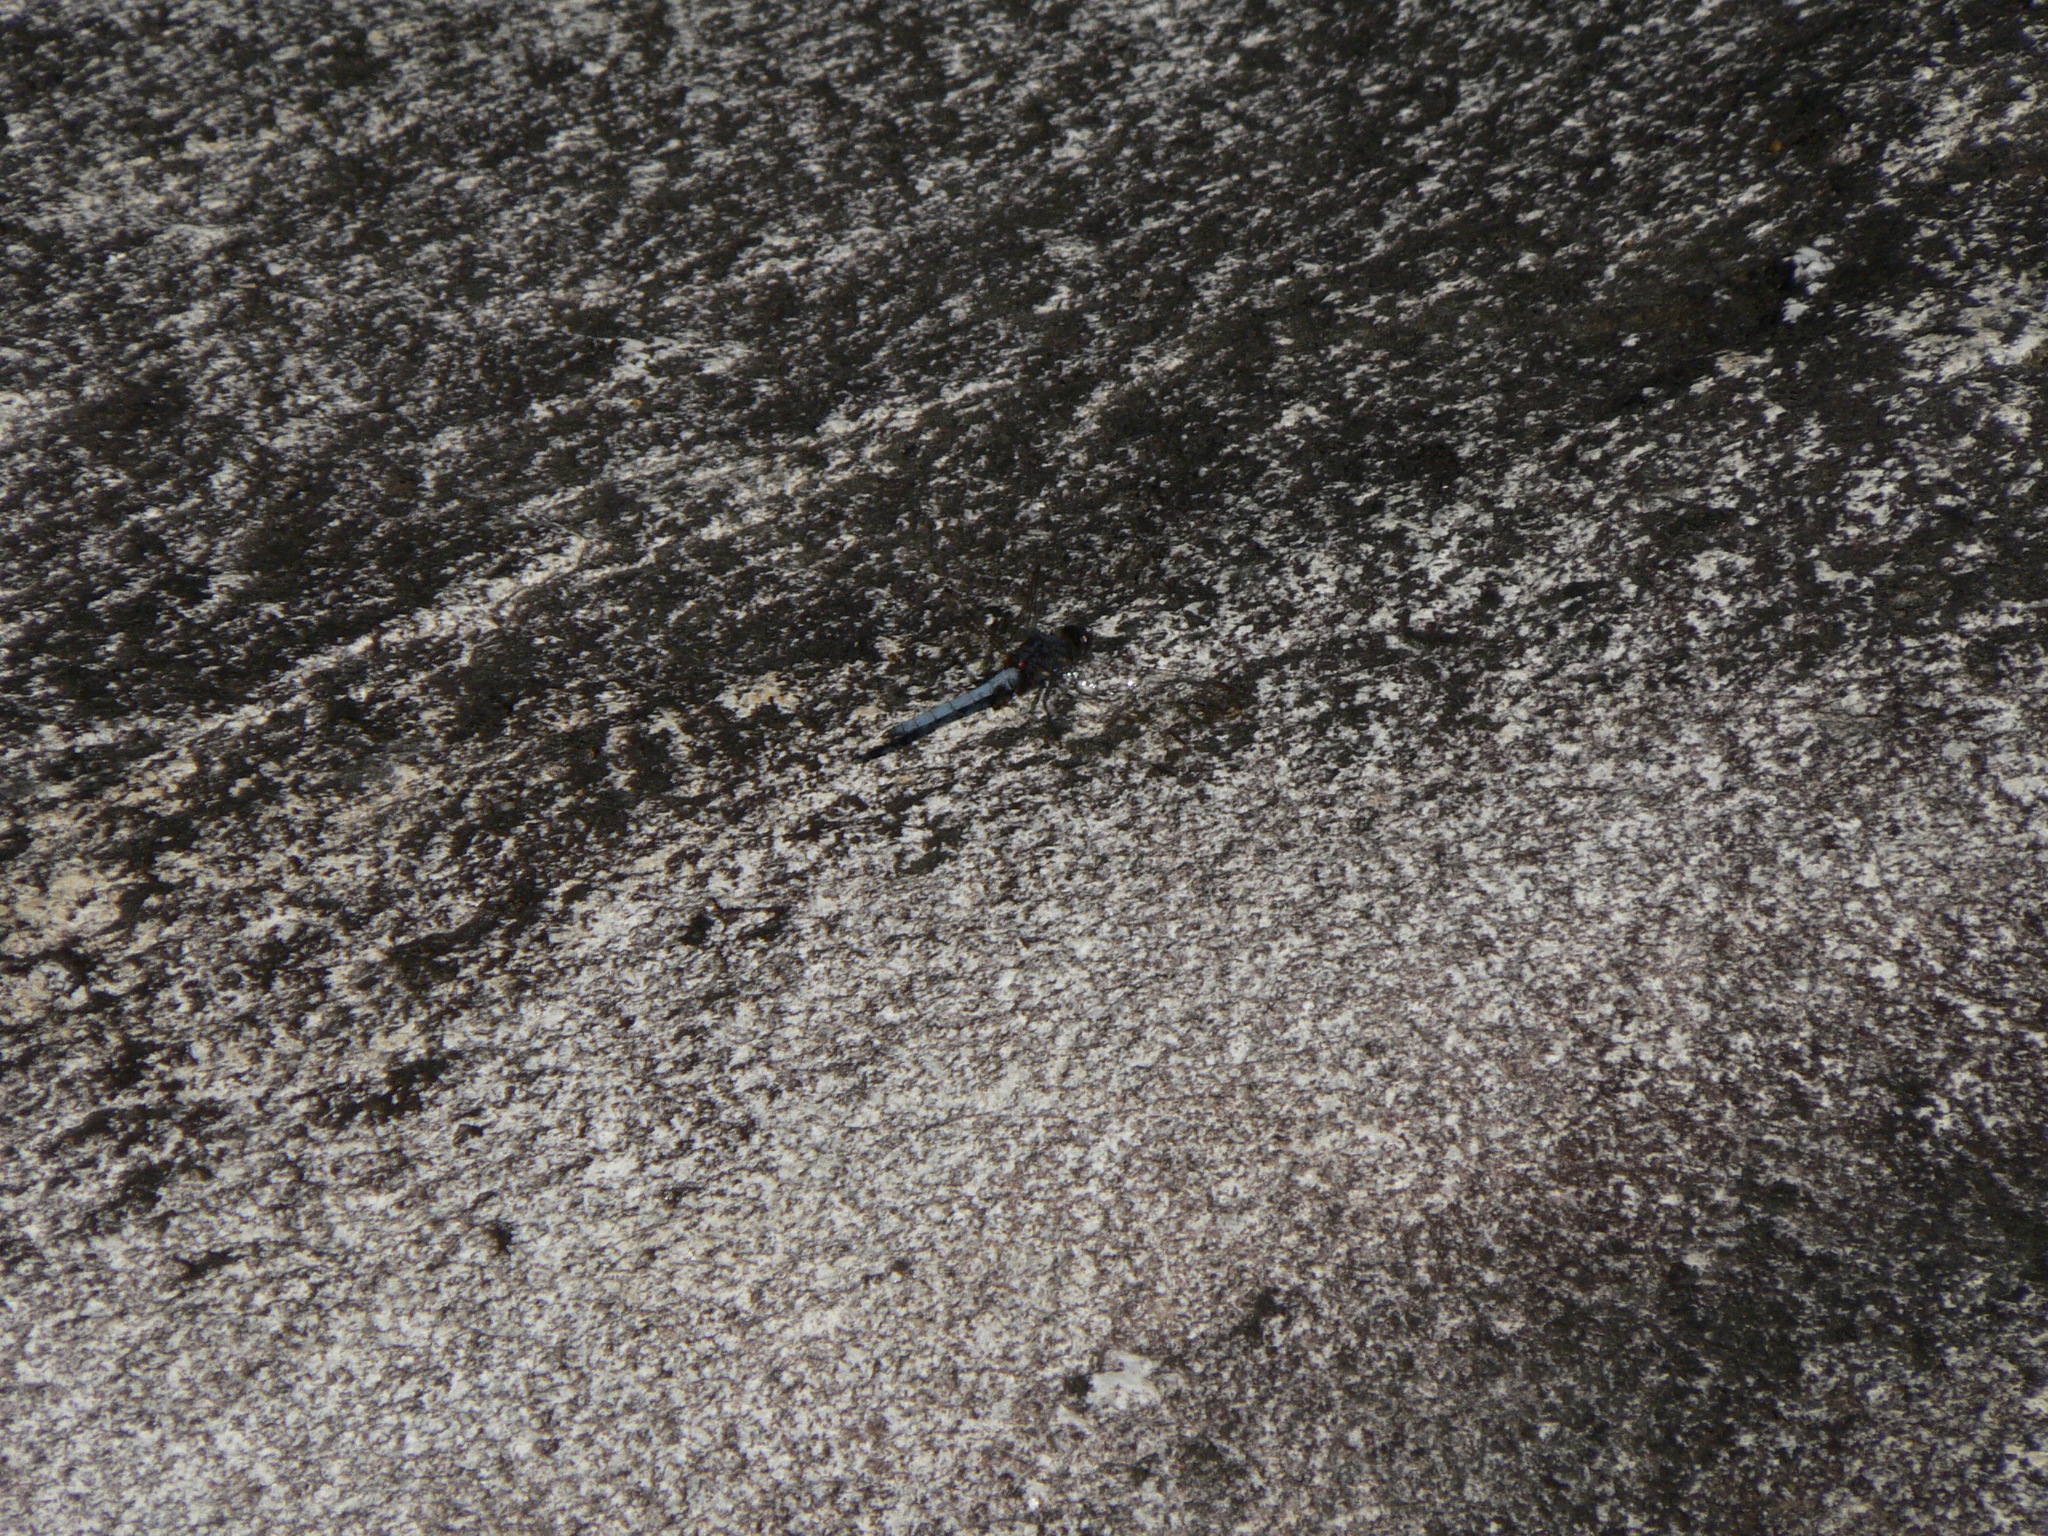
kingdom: Animalia
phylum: Arthropoda
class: Insecta
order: Odonata
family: Libellulidae
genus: Orthetrum
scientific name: Orthetrum glaucum
